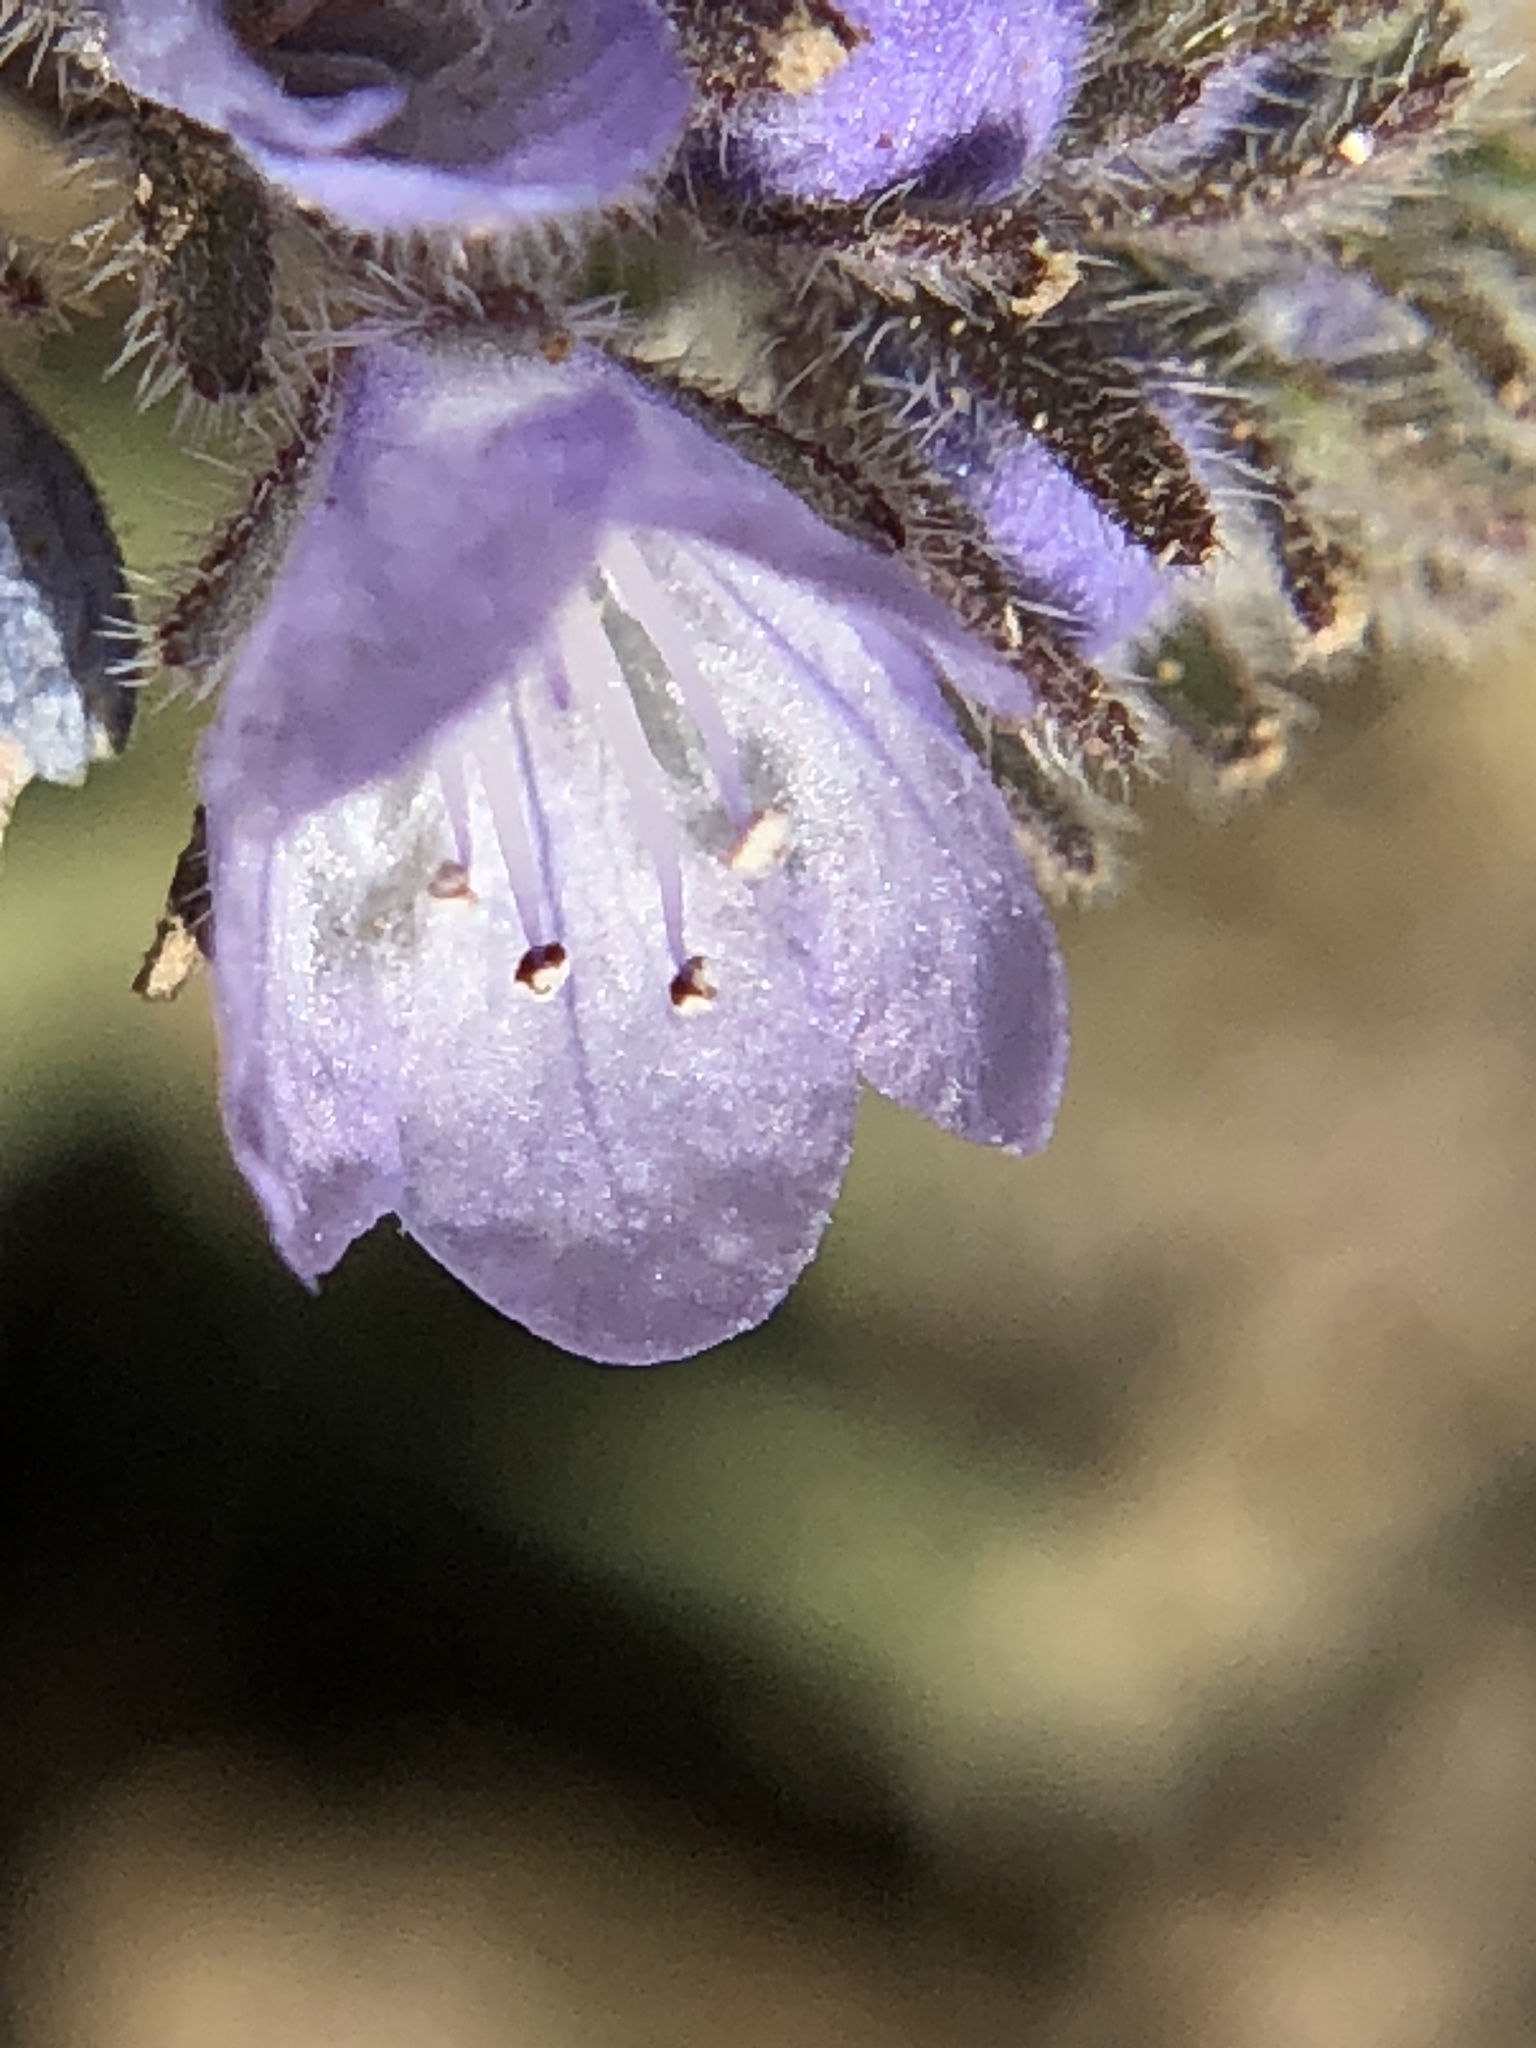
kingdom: Plantae
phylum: Tracheophyta
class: Magnoliopsida
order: Boraginales
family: Hydrophyllaceae
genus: Phacelia
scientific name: Phacelia breweri
